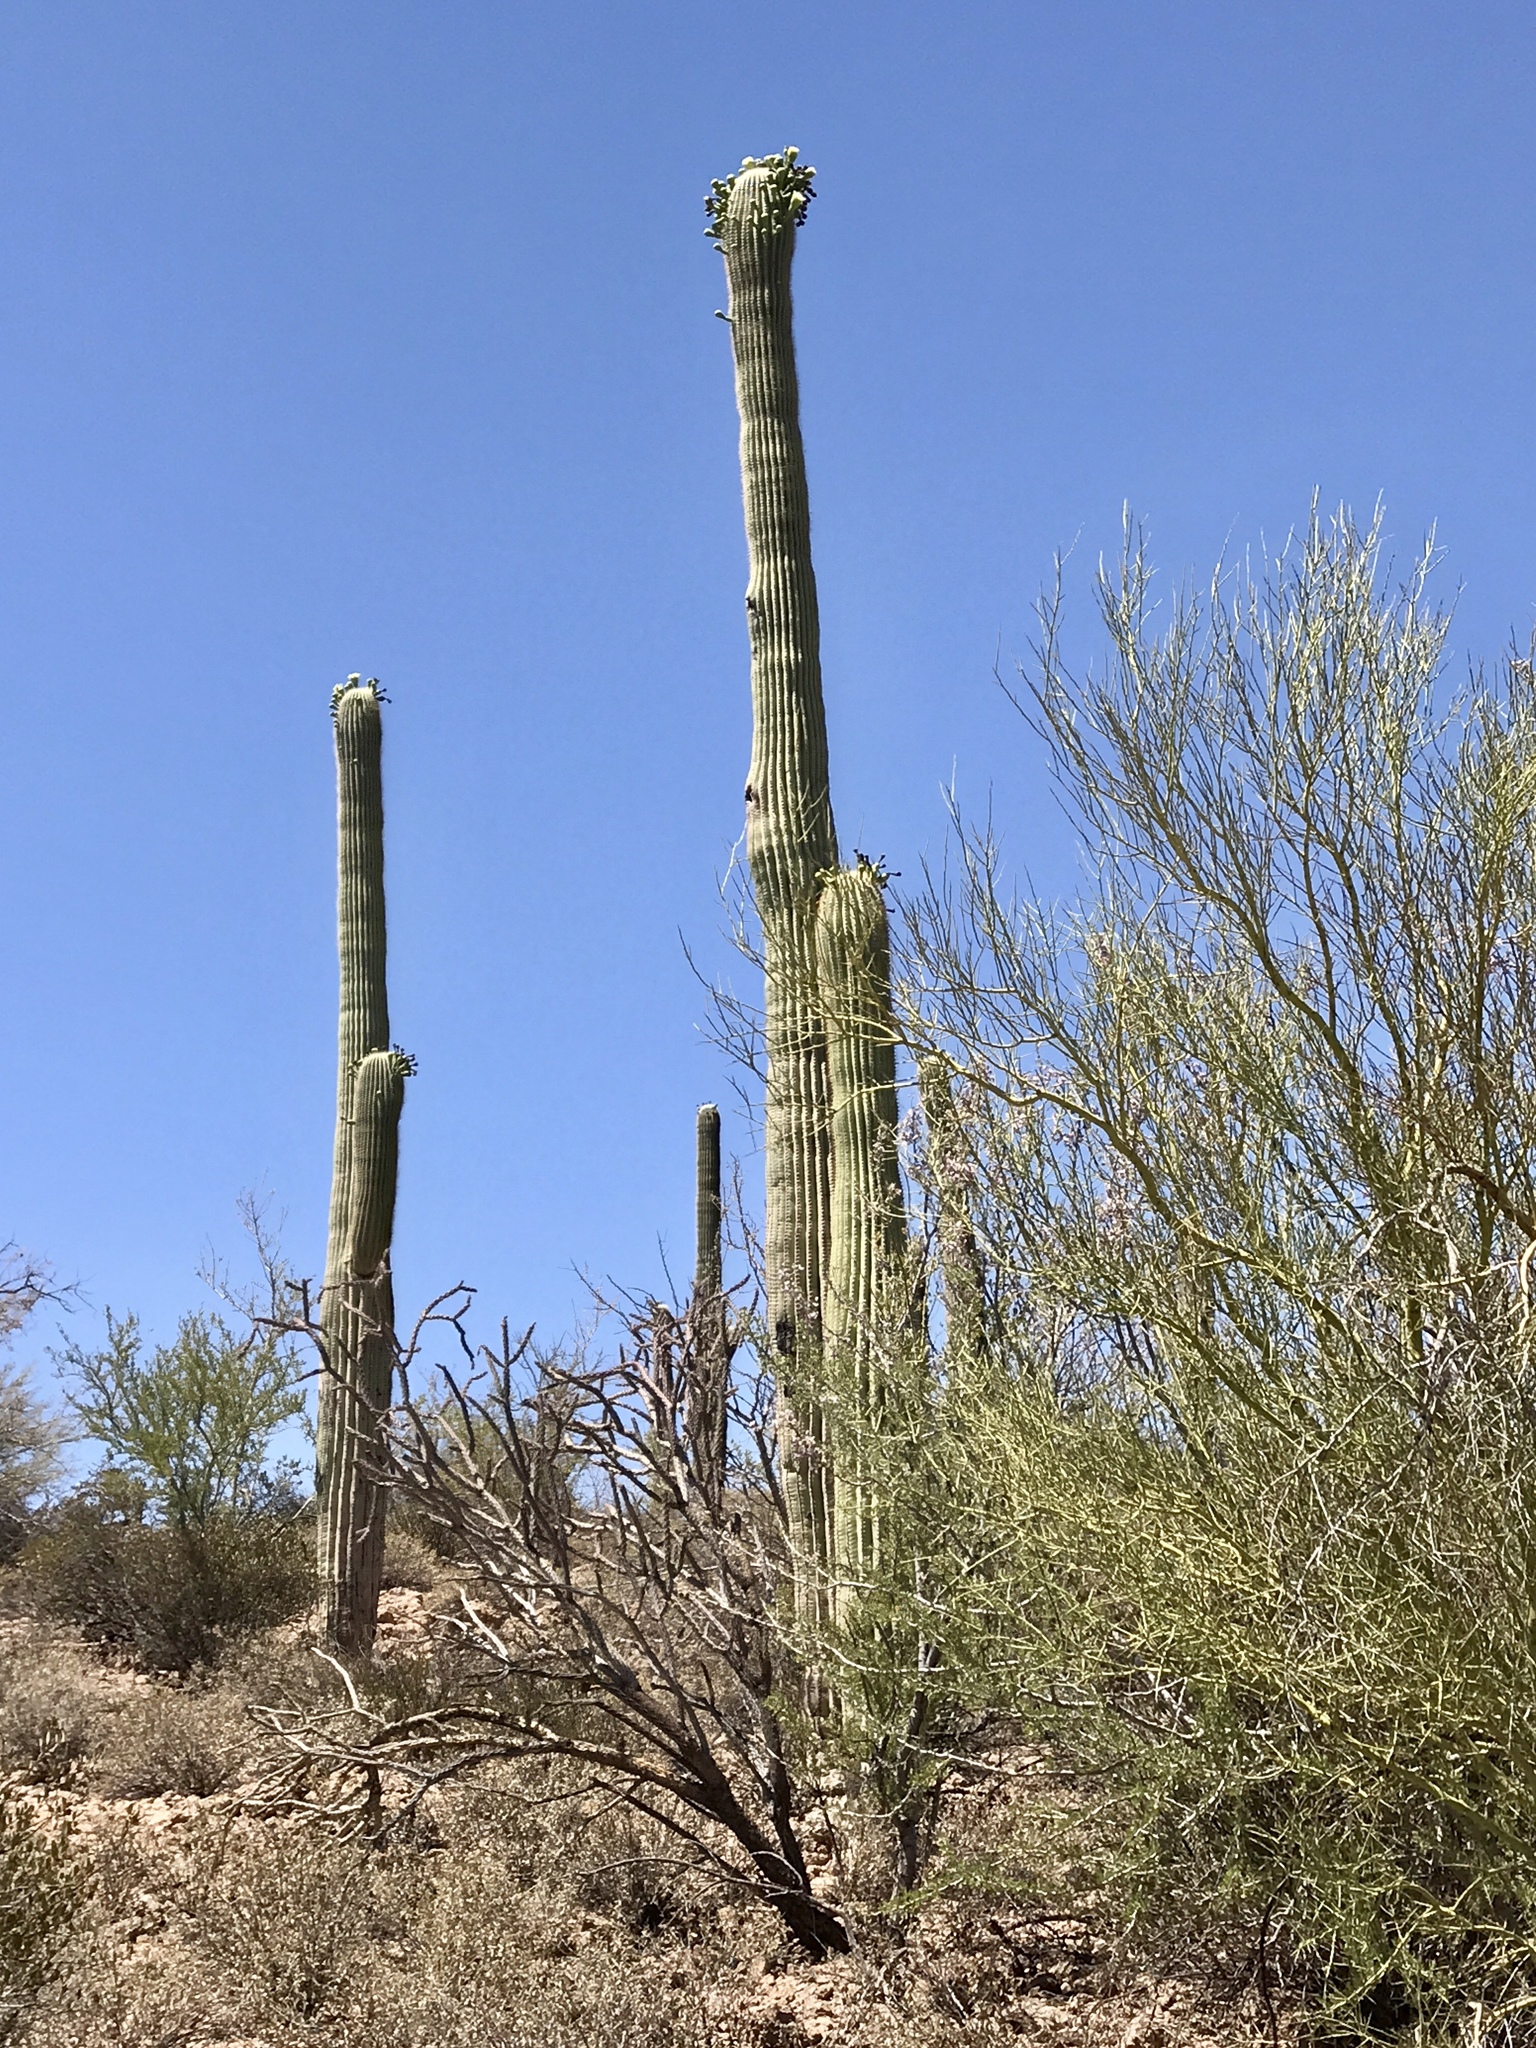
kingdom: Plantae
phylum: Tracheophyta
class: Magnoliopsida
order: Caryophyllales
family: Cactaceae
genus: Carnegiea
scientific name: Carnegiea gigantea
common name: Saguaro
